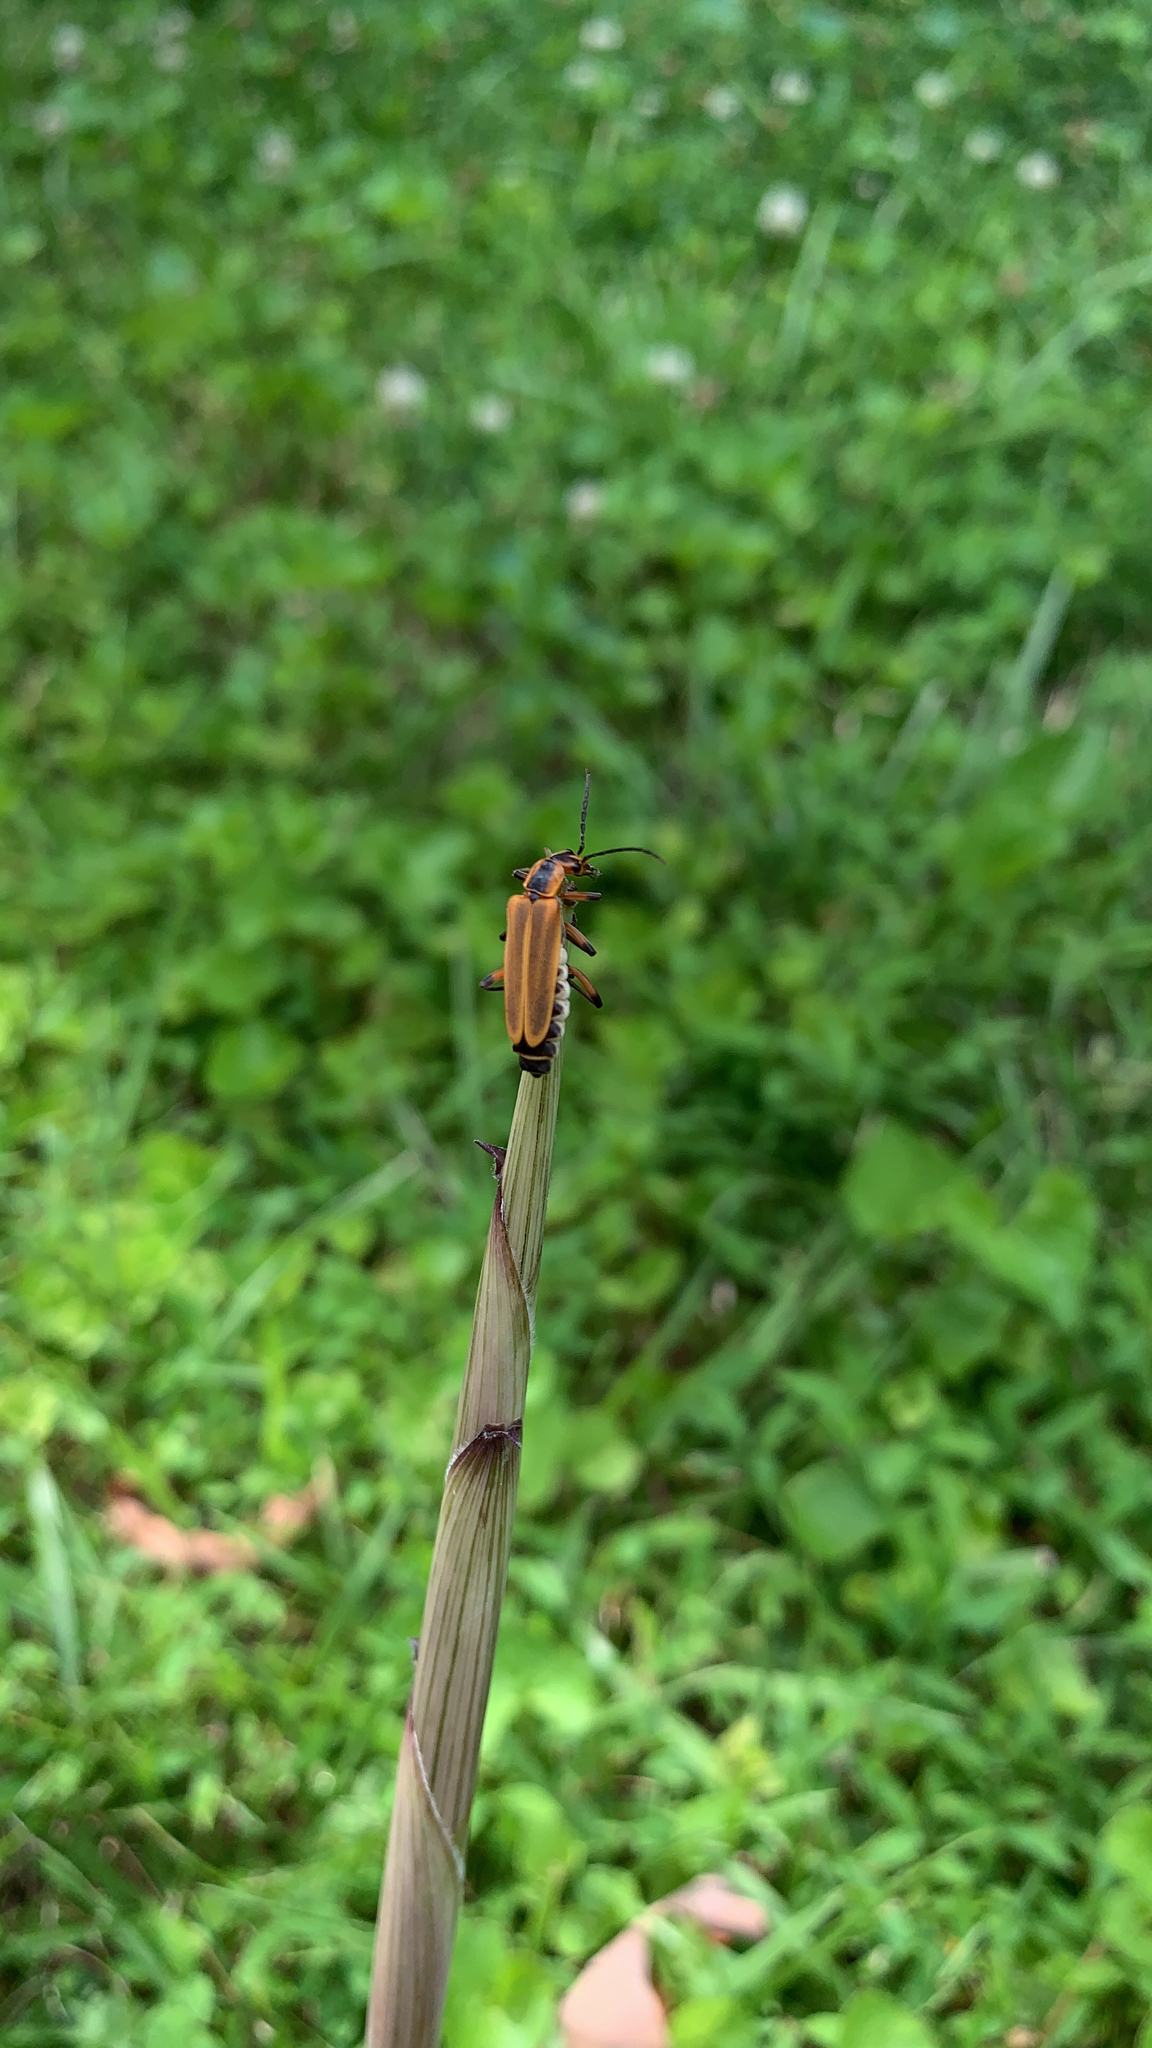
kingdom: Animalia
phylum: Arthropoda
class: Insecta
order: Coleoptera
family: Cantharidae
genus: Chauliognathus
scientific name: Chauliognathus marginatus
